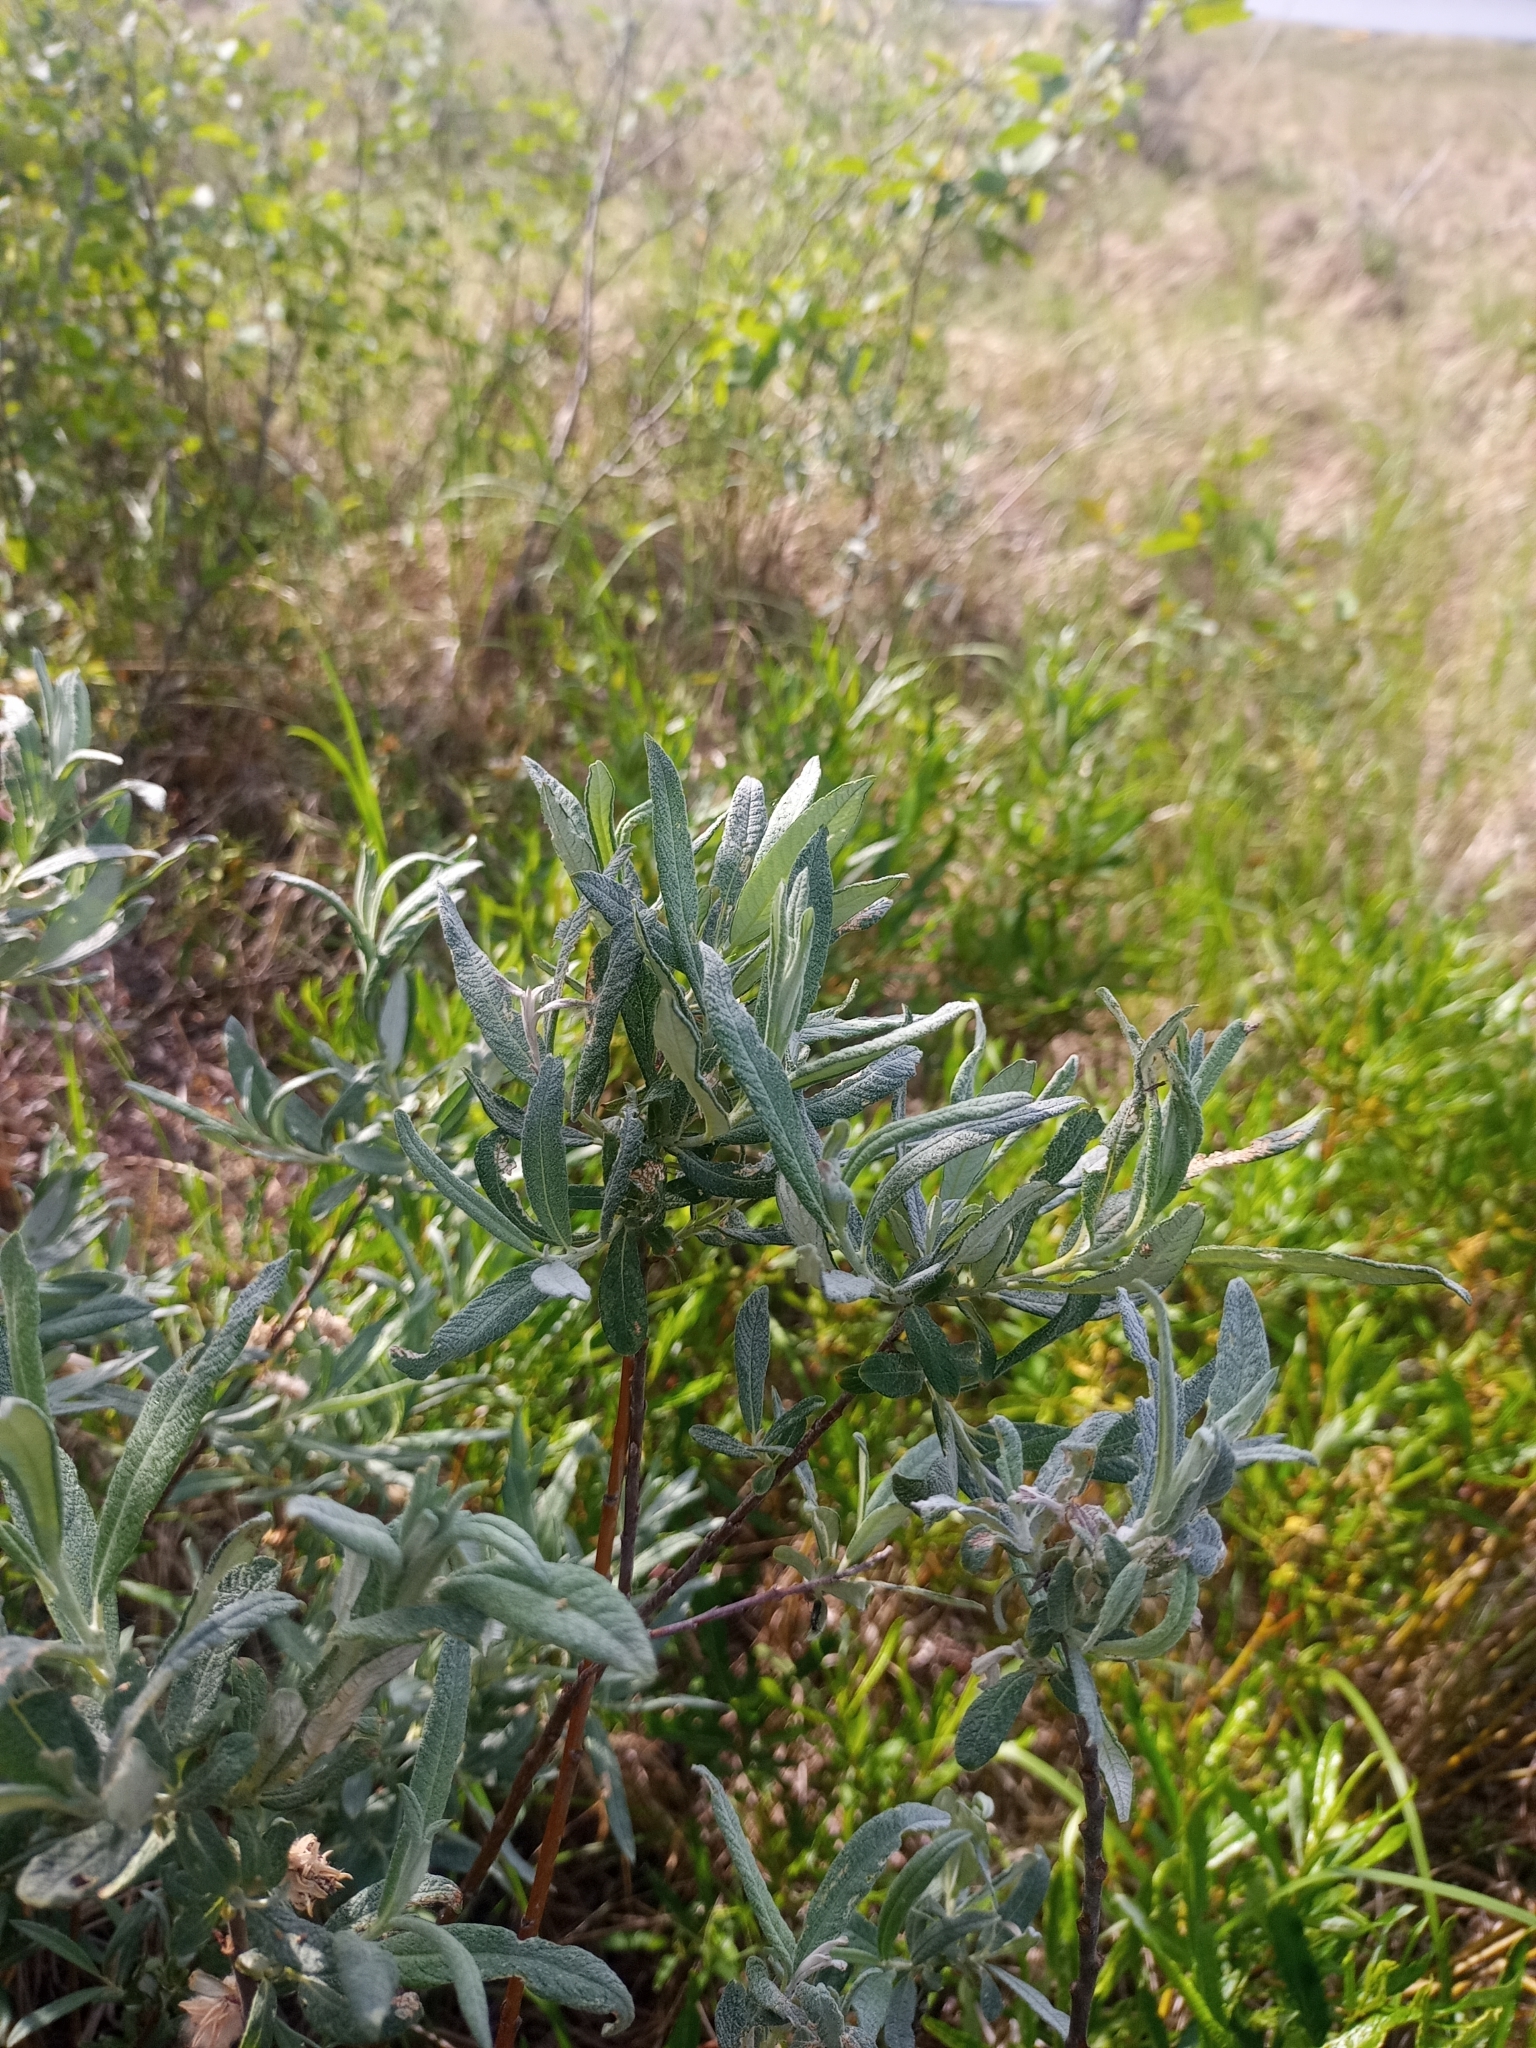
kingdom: Plantae
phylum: Tracheophyta
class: Magnoliopsida
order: Malpighiales
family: Salicaceae
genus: Salix
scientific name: Salix candida
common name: Hoary willow
